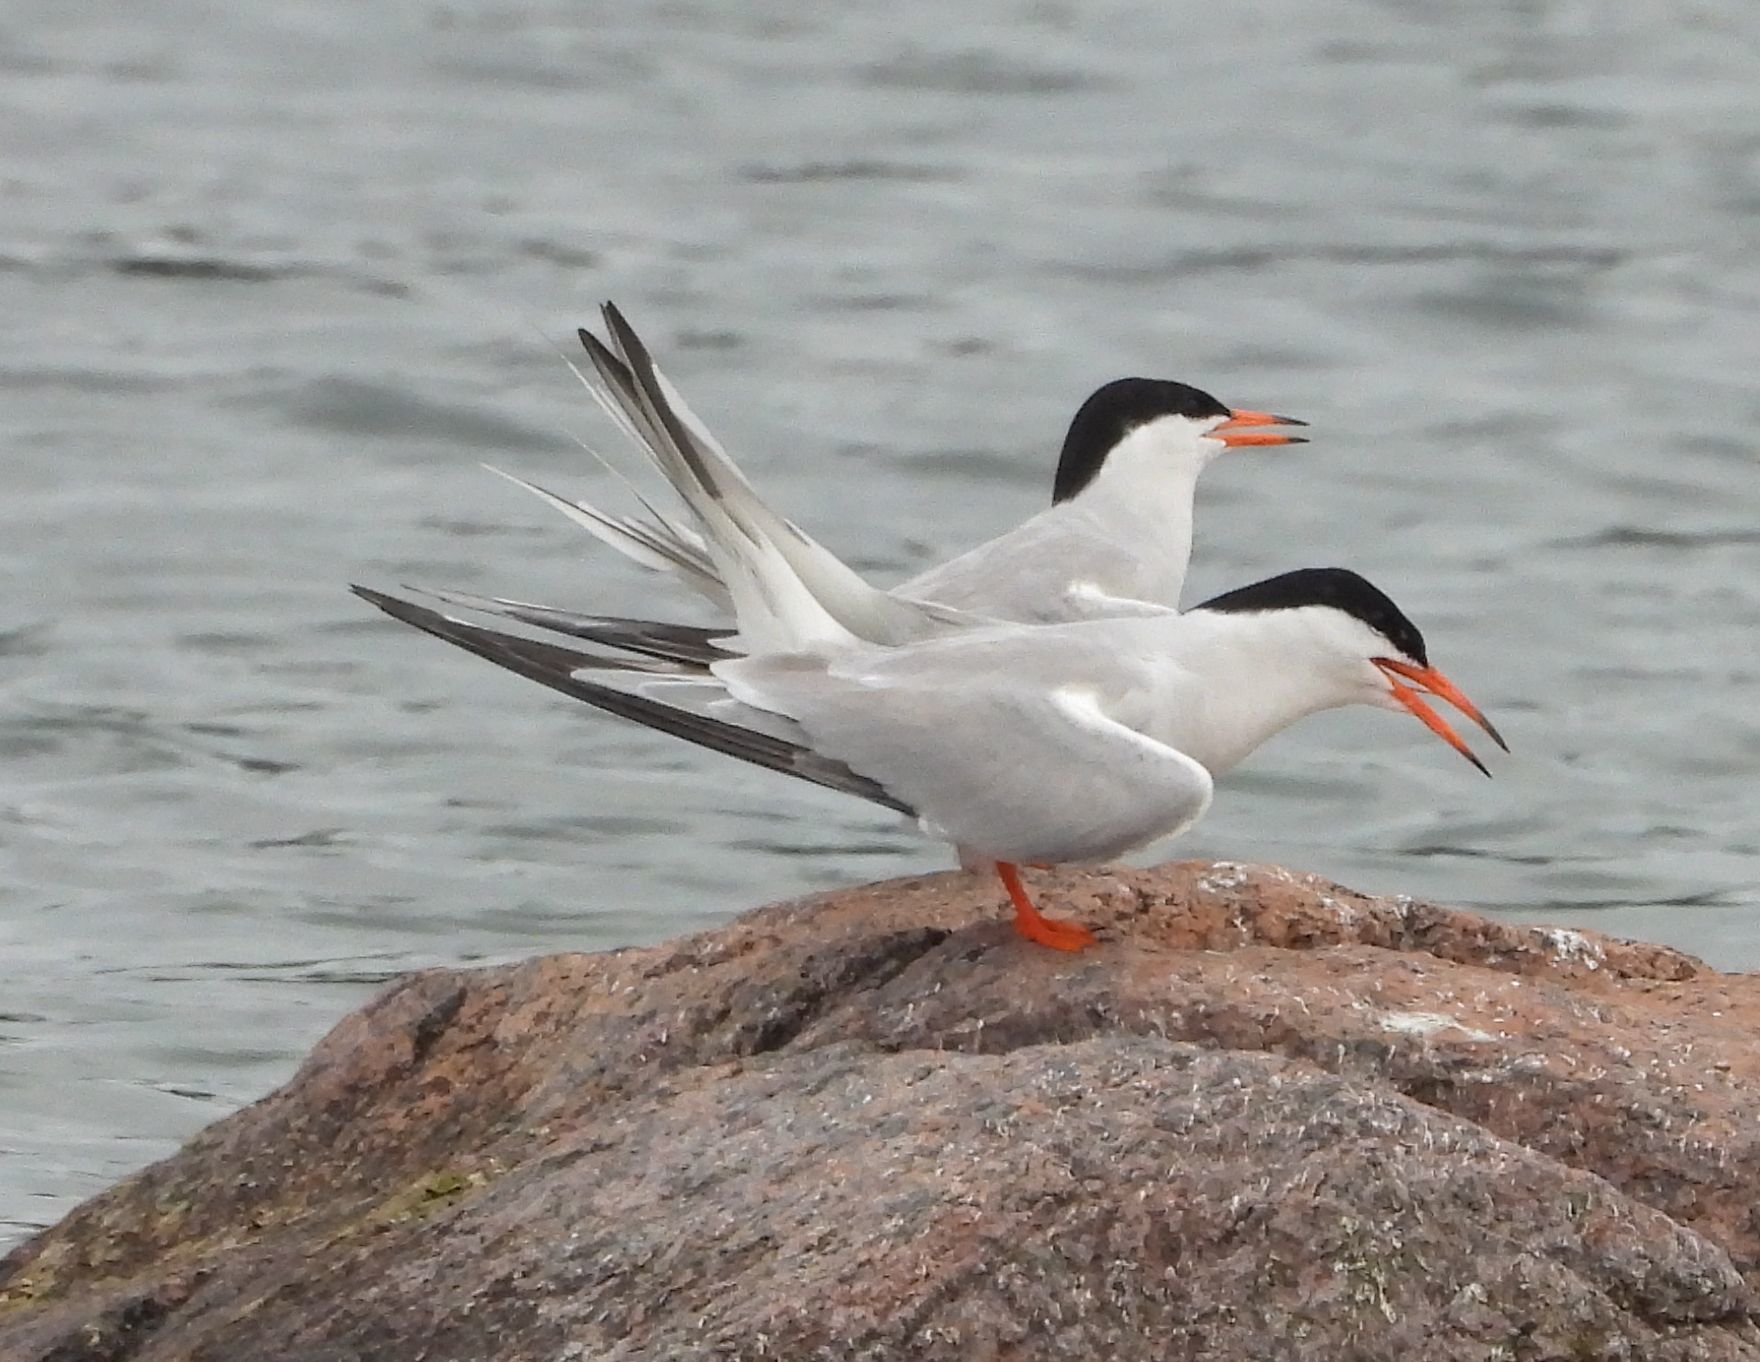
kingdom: Animalia
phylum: Chordata
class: Aves
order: Charadriiformes
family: Laridae
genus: Sterna
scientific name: Sterna hirundo
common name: Common tern
